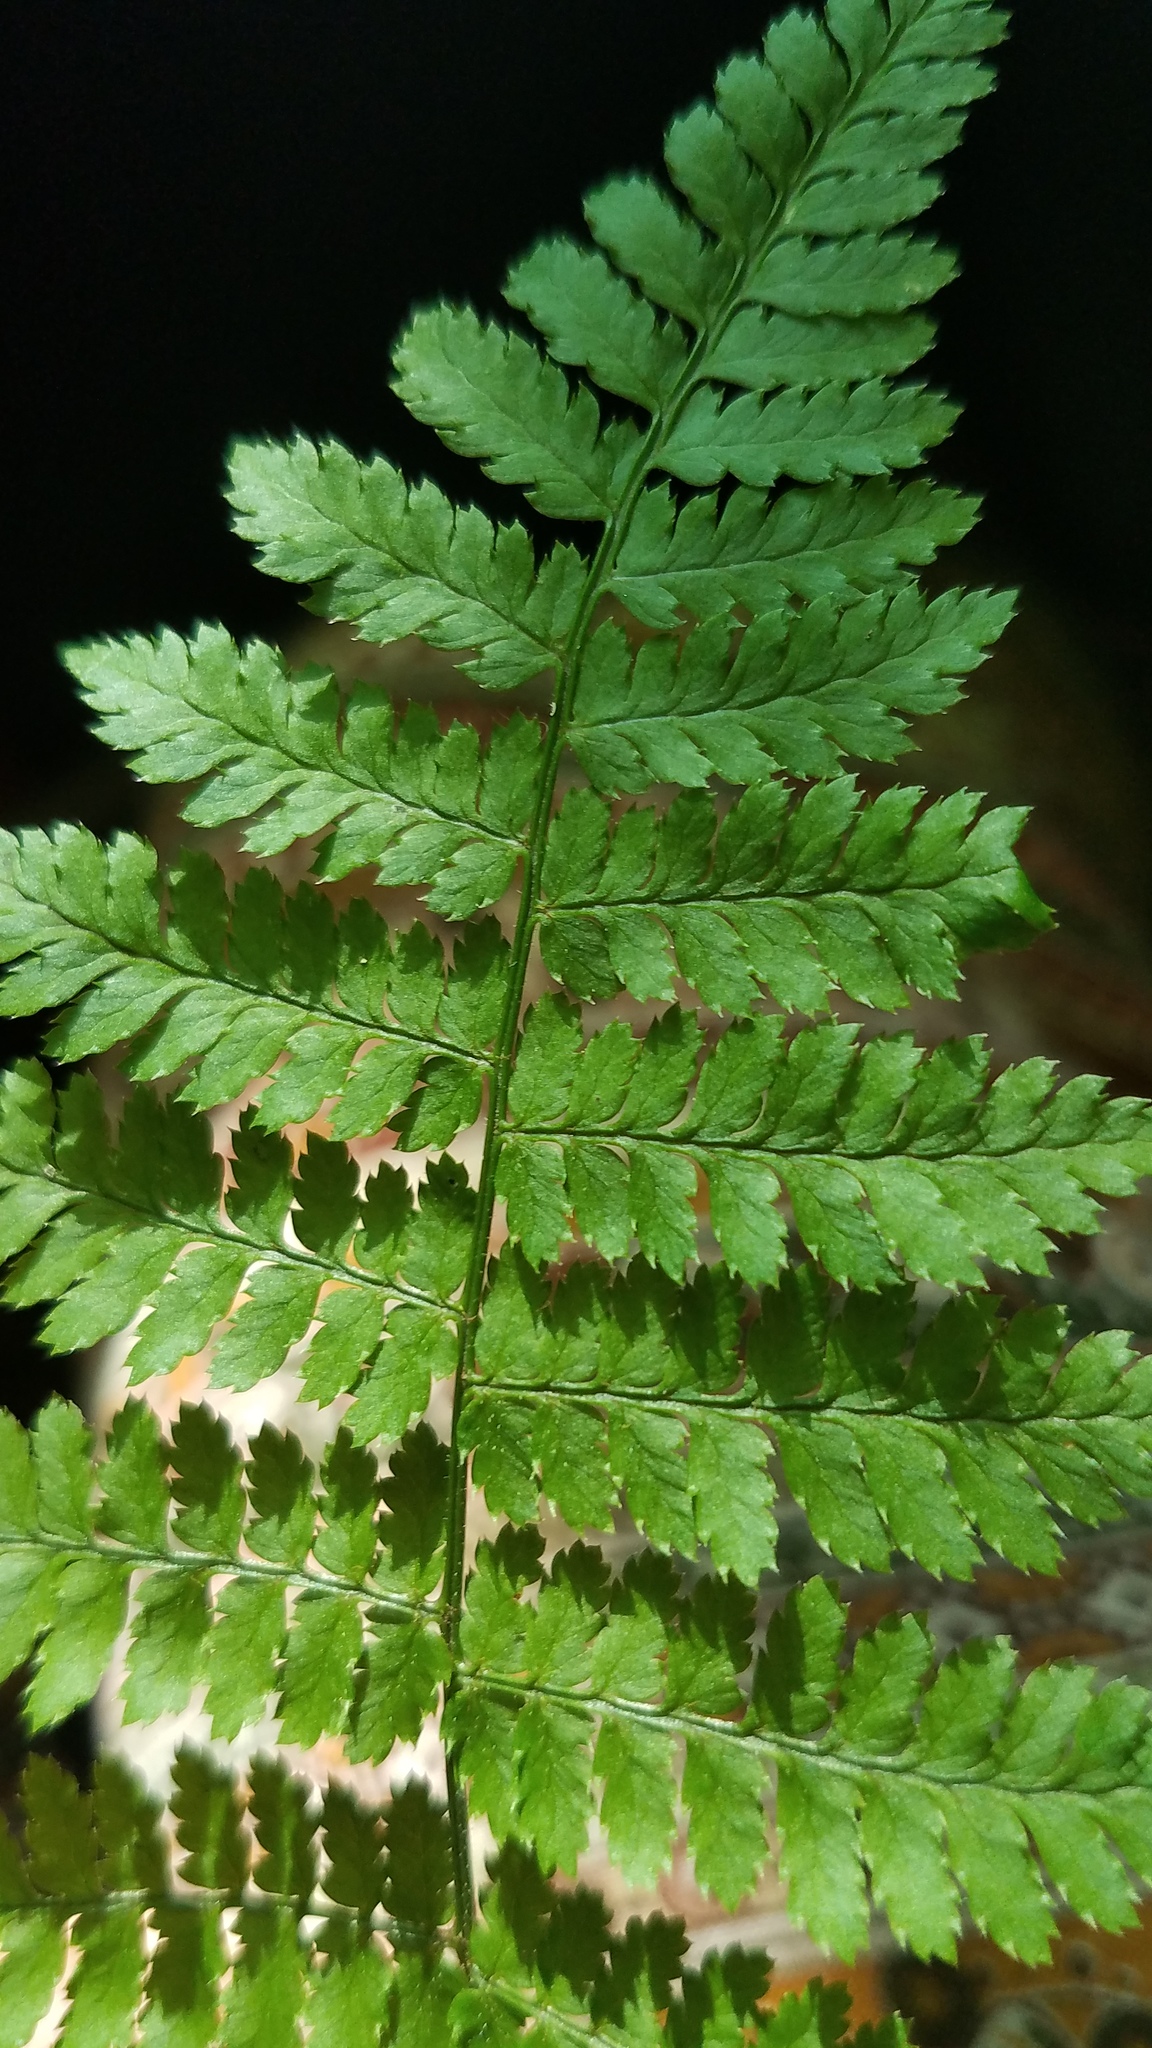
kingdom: Plantae
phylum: Tracheophyta
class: Polypodiopsida
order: Polypodiales
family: Dryopteridaceae
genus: Dryopteris
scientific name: Dryopteris intermedia
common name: Evergreen wood fern
